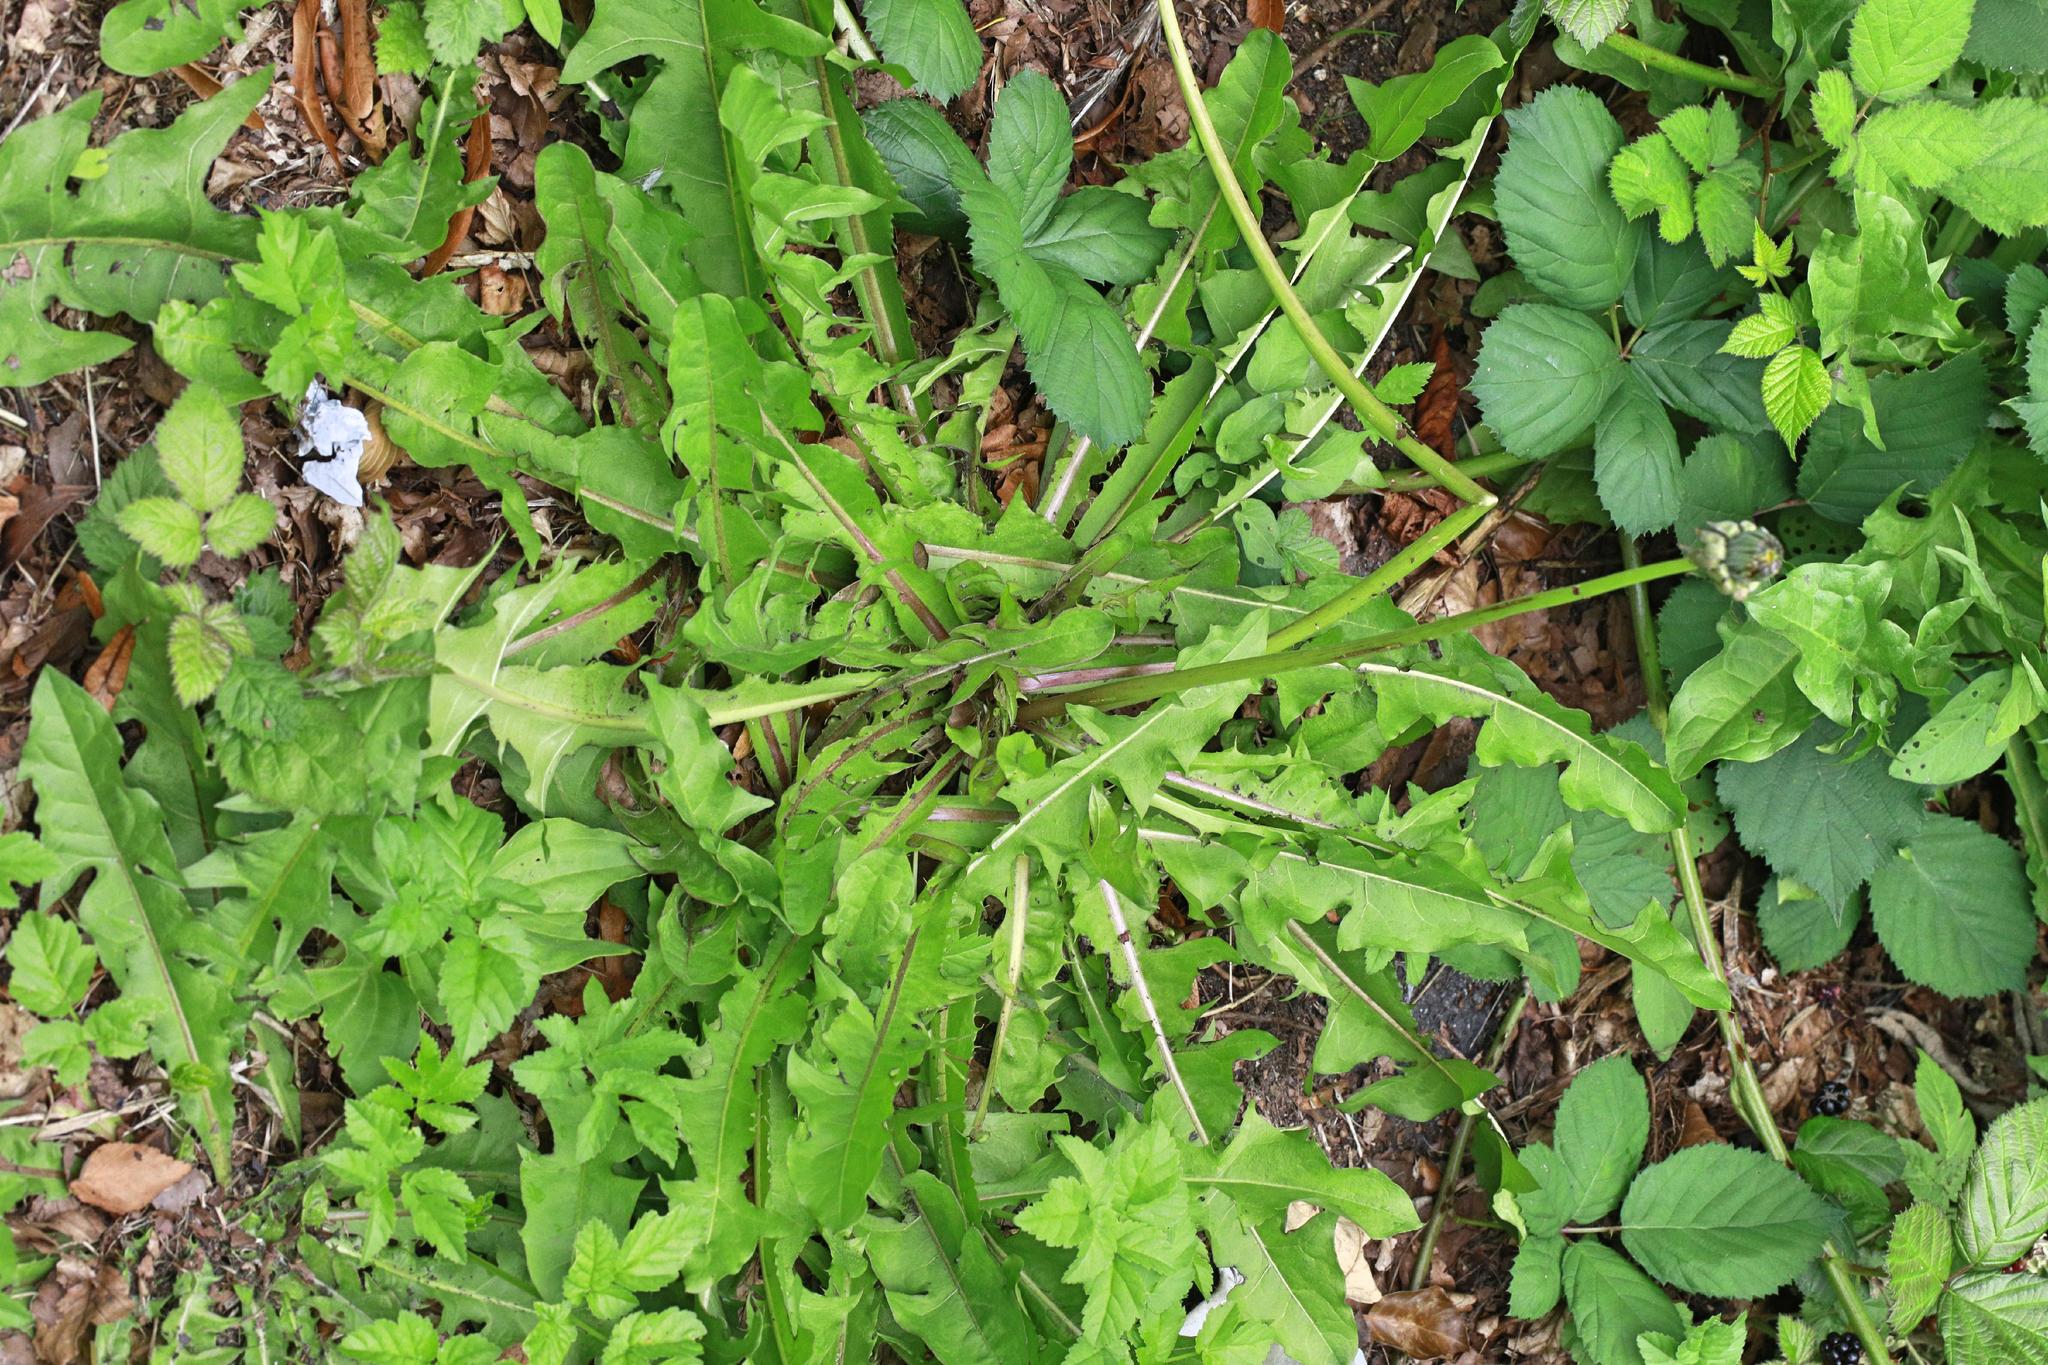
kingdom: Plantae
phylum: Tracheophyta
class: Magnoliopsida
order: Asterales
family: Asteraceae
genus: Taraxacum
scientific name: Taraxacum officinale
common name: Common dandelion
